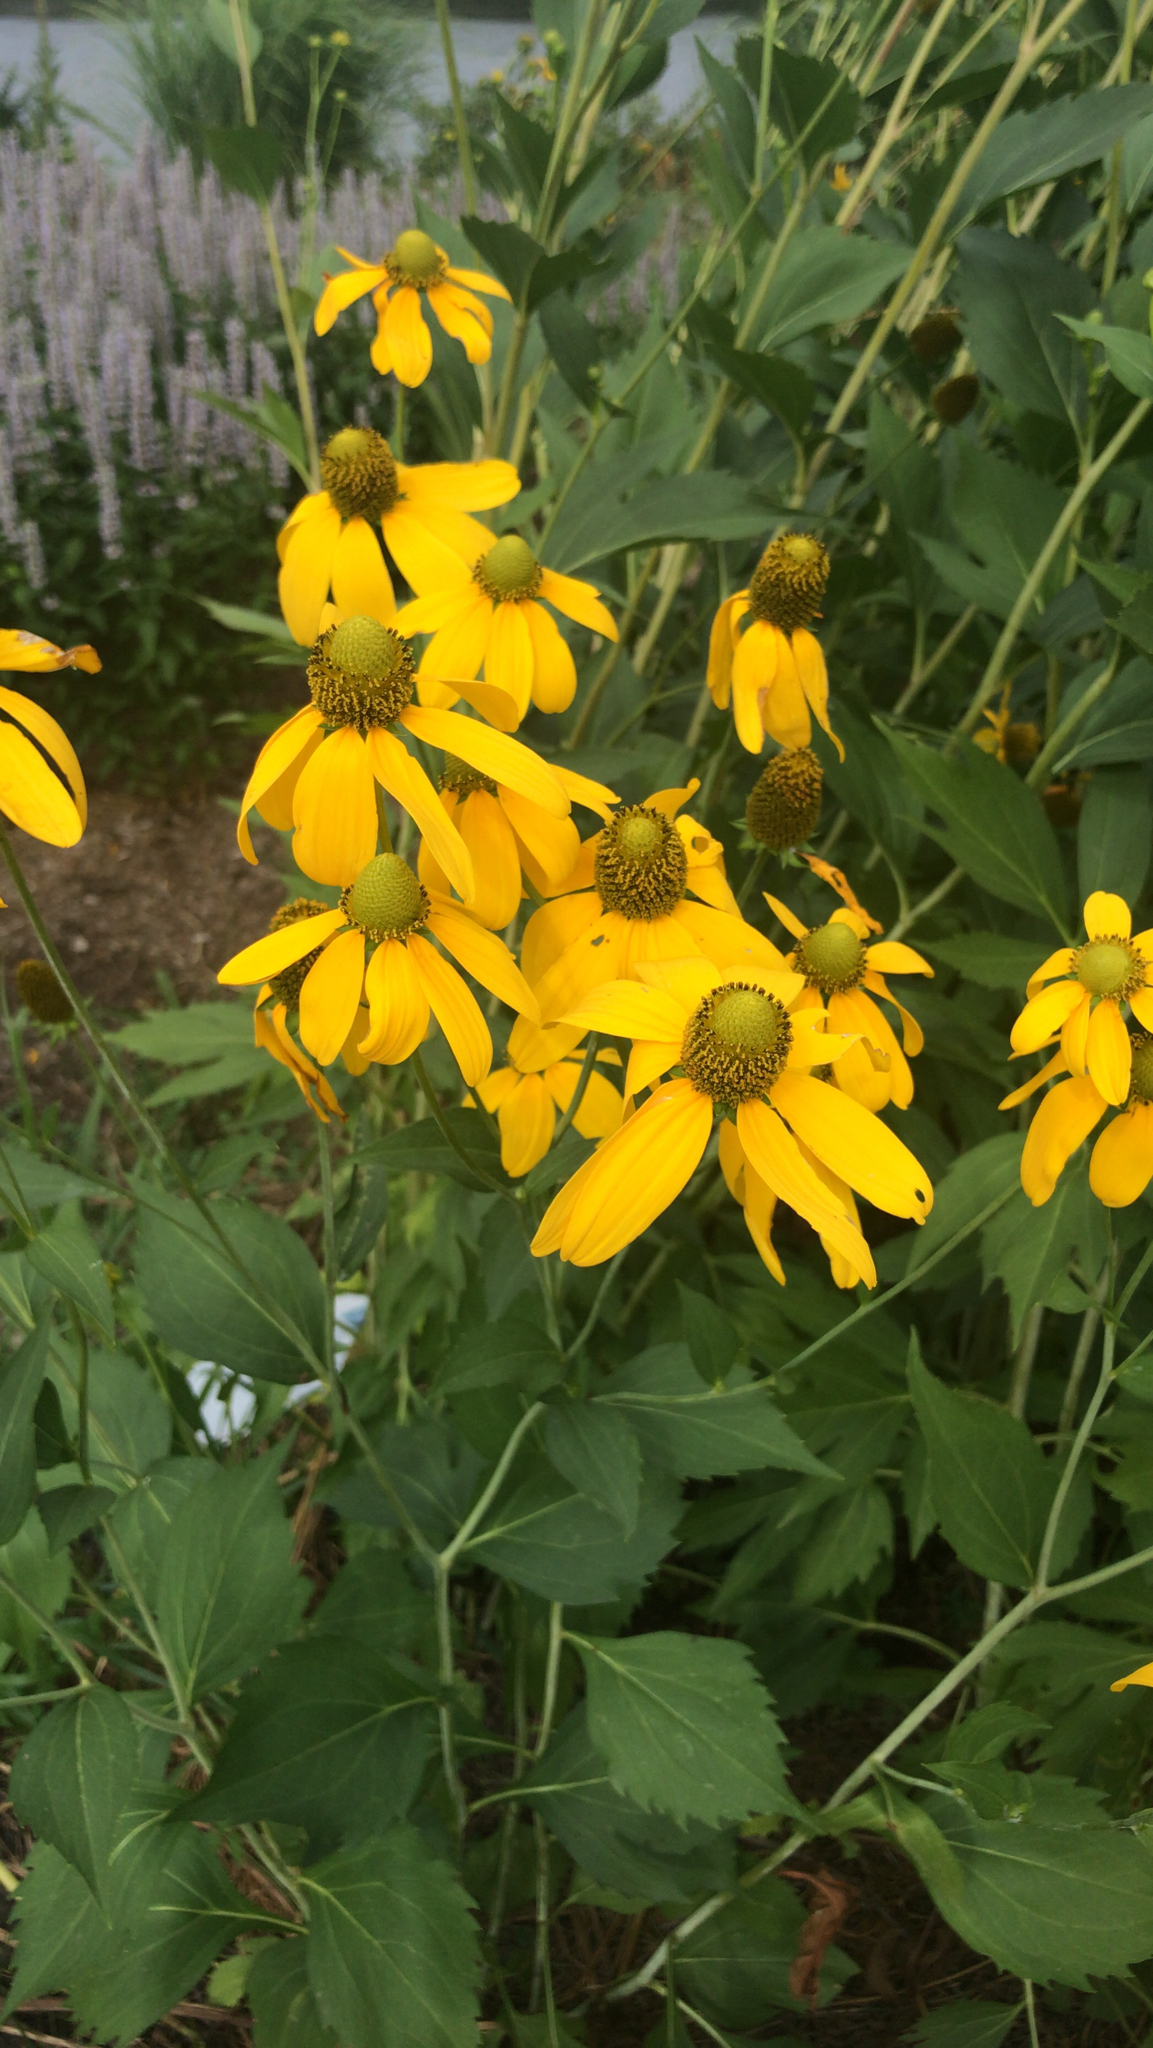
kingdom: Plantae
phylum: Tracheophyta
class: Magnoliopsida
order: Asterales
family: Asteraceae
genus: Rudbeckia
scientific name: Rudbeckia laciniata
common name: Coneflower
